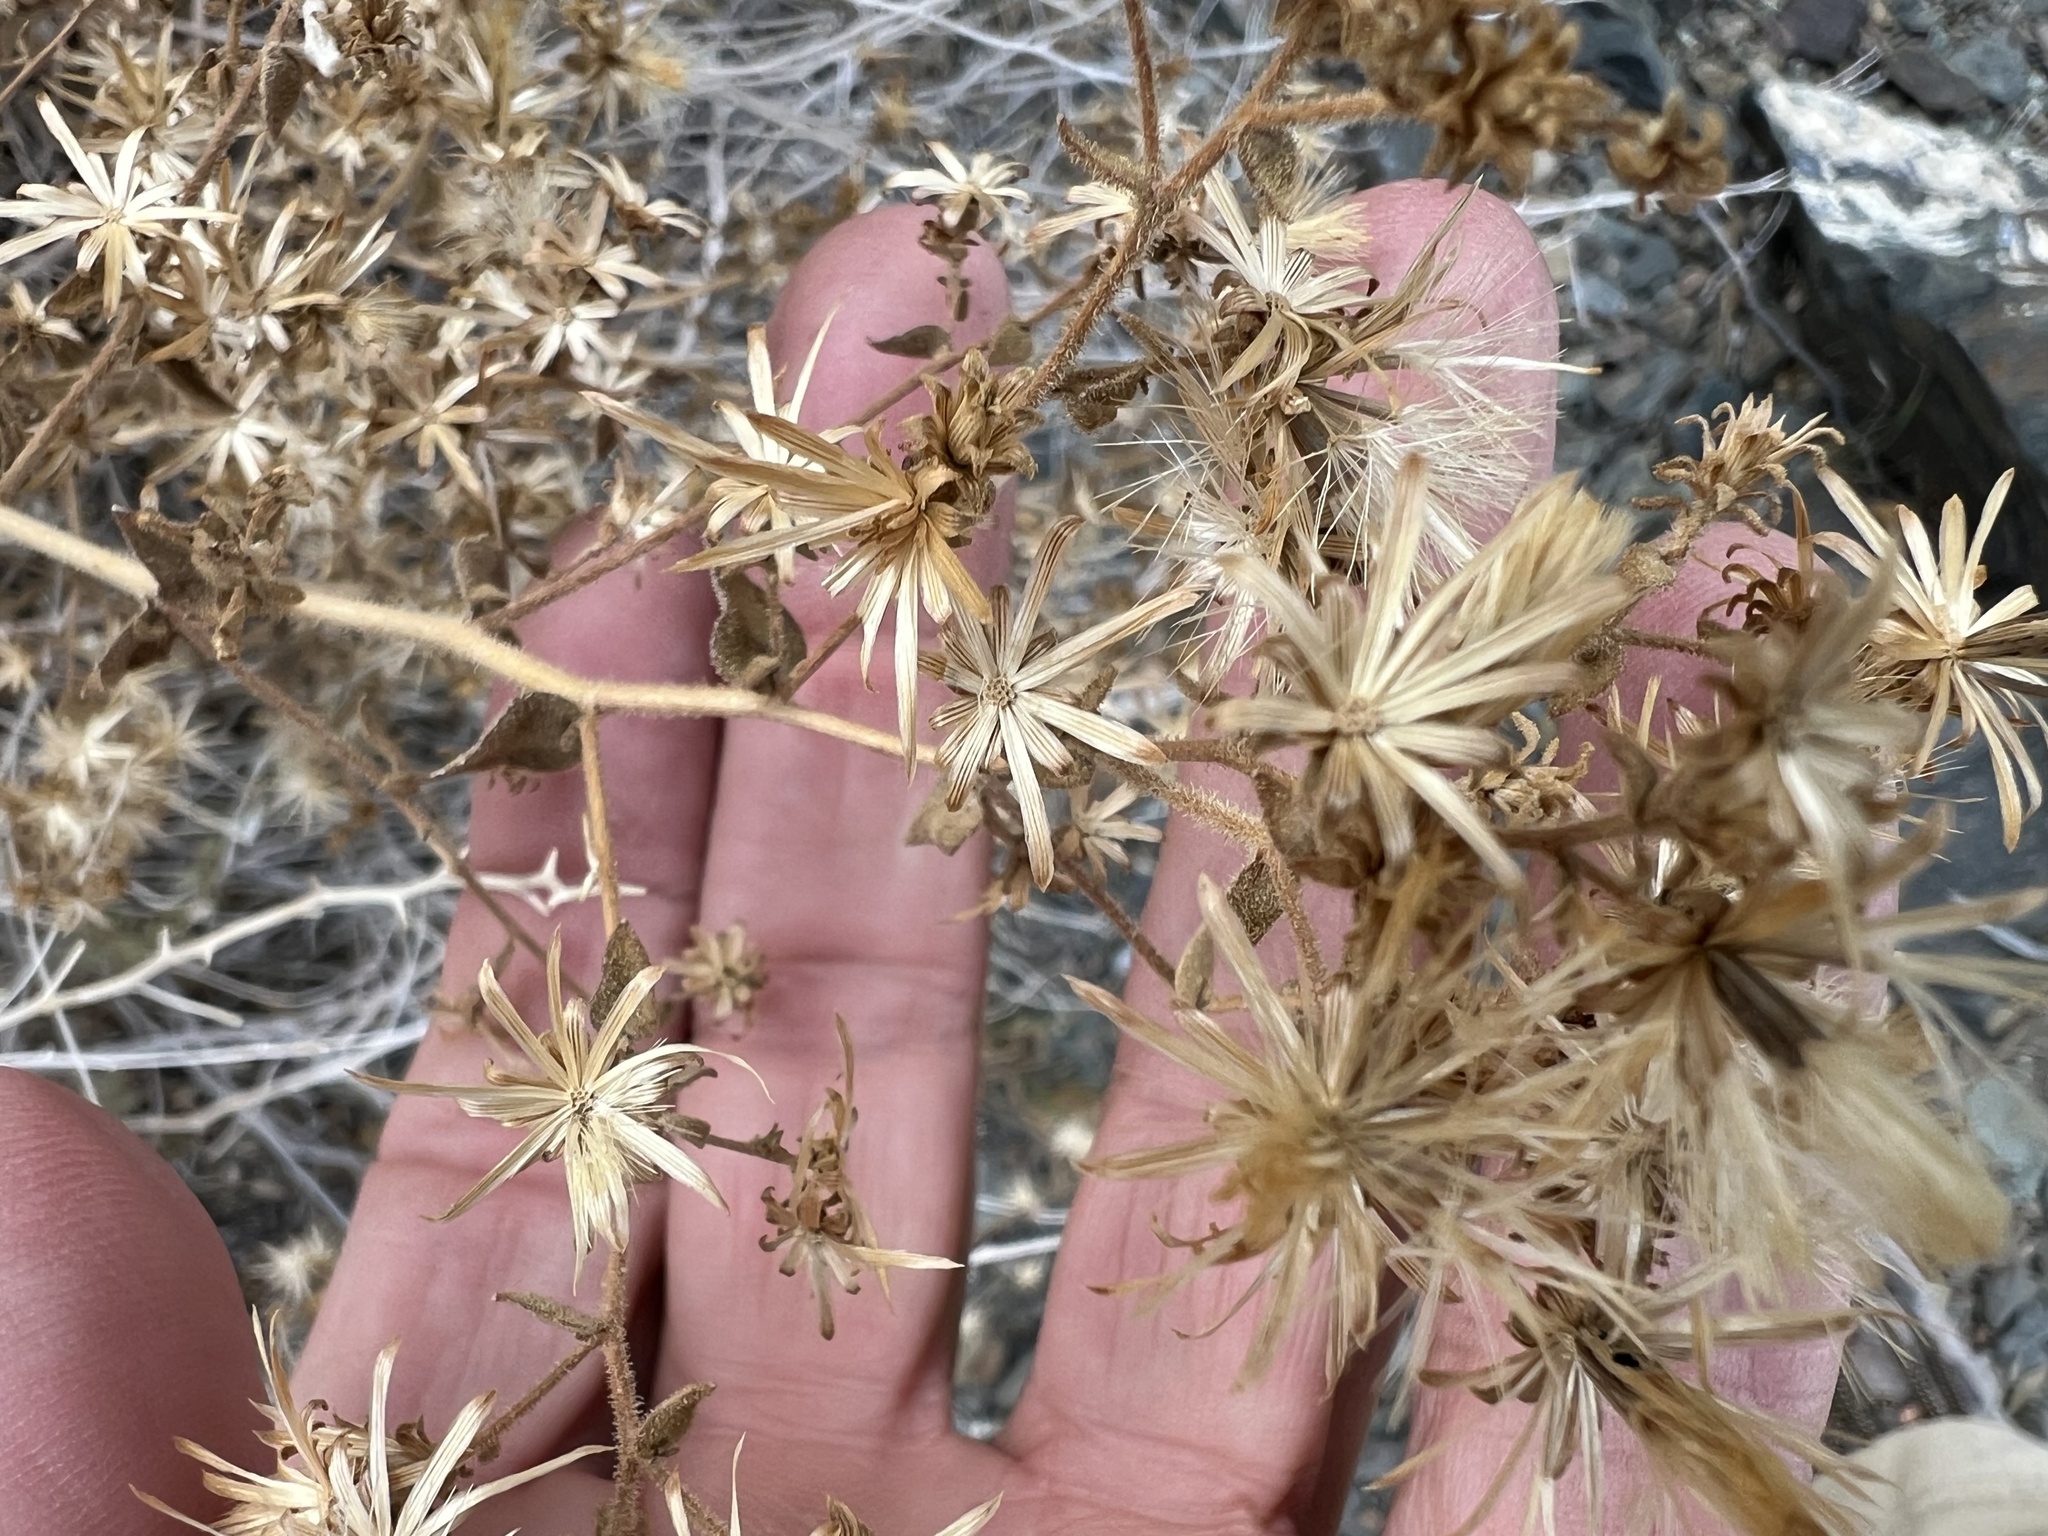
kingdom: Plantae
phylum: Tracheophyta
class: Magnoliopsida
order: Asterales
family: Asteraceae
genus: Brickellia
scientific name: Brickellia californica
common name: California brickellbush
